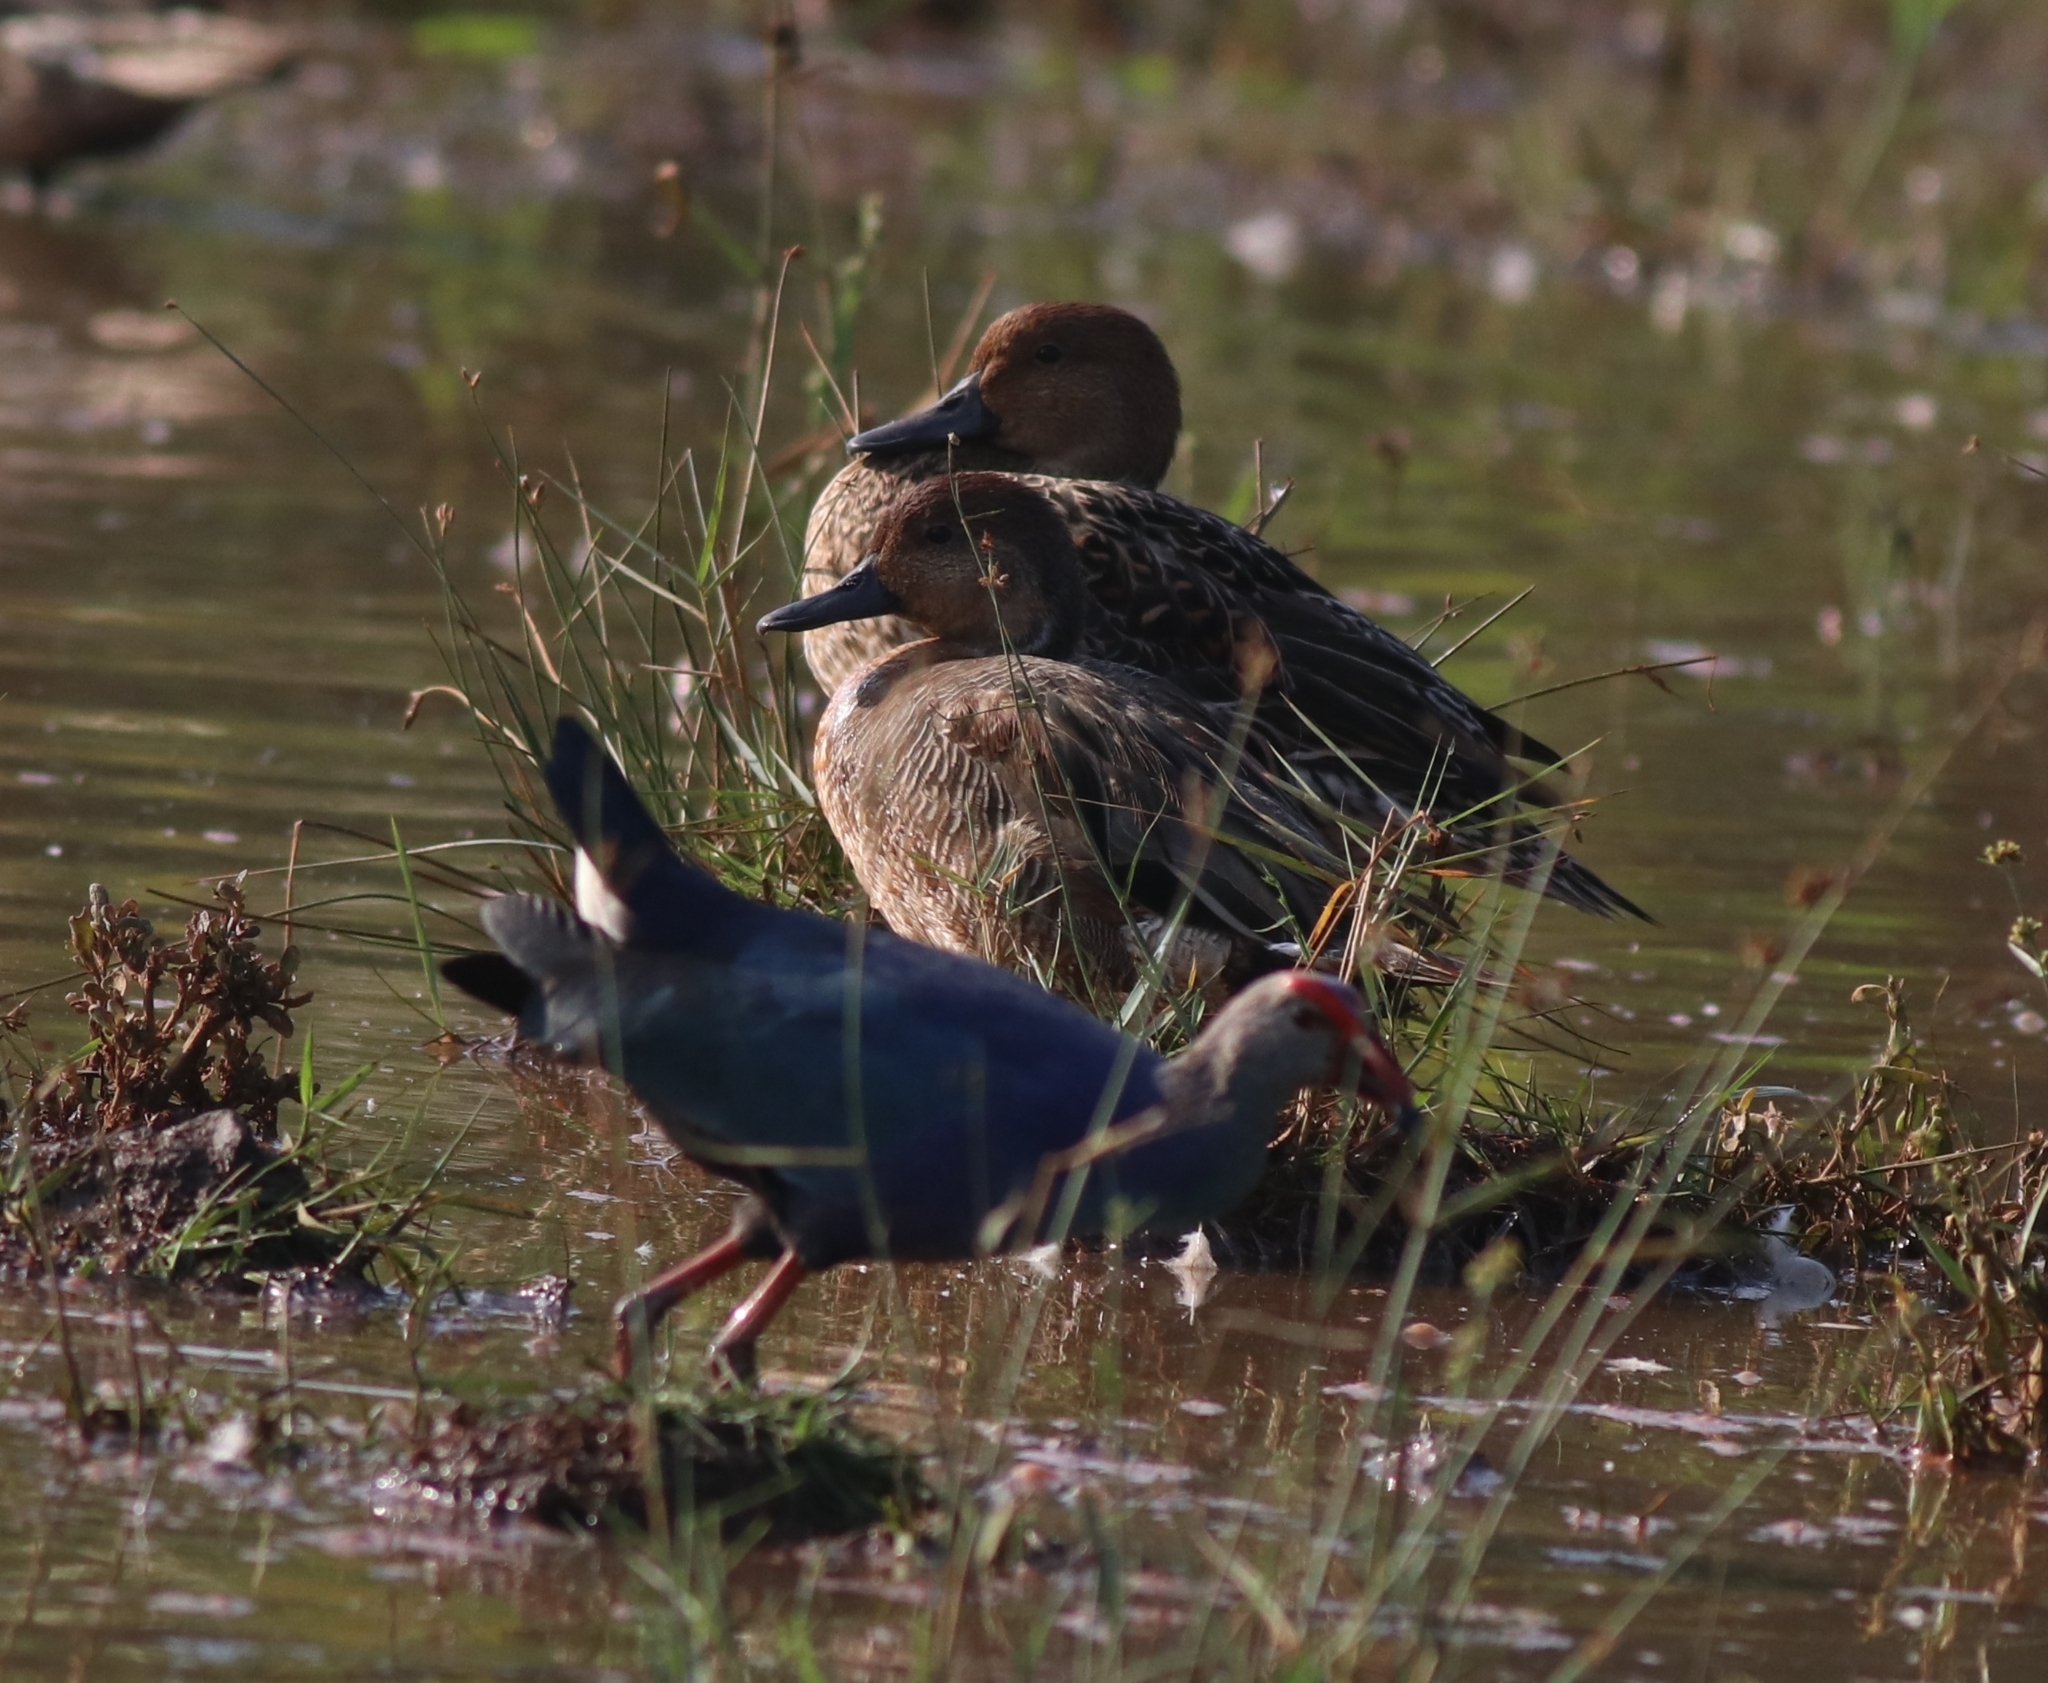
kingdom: Animalia
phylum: Chordata
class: Aves
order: Gruiformes
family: Rallidae
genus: Porphyrio
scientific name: Porphyrio porphyrio
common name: Purple swamphen
